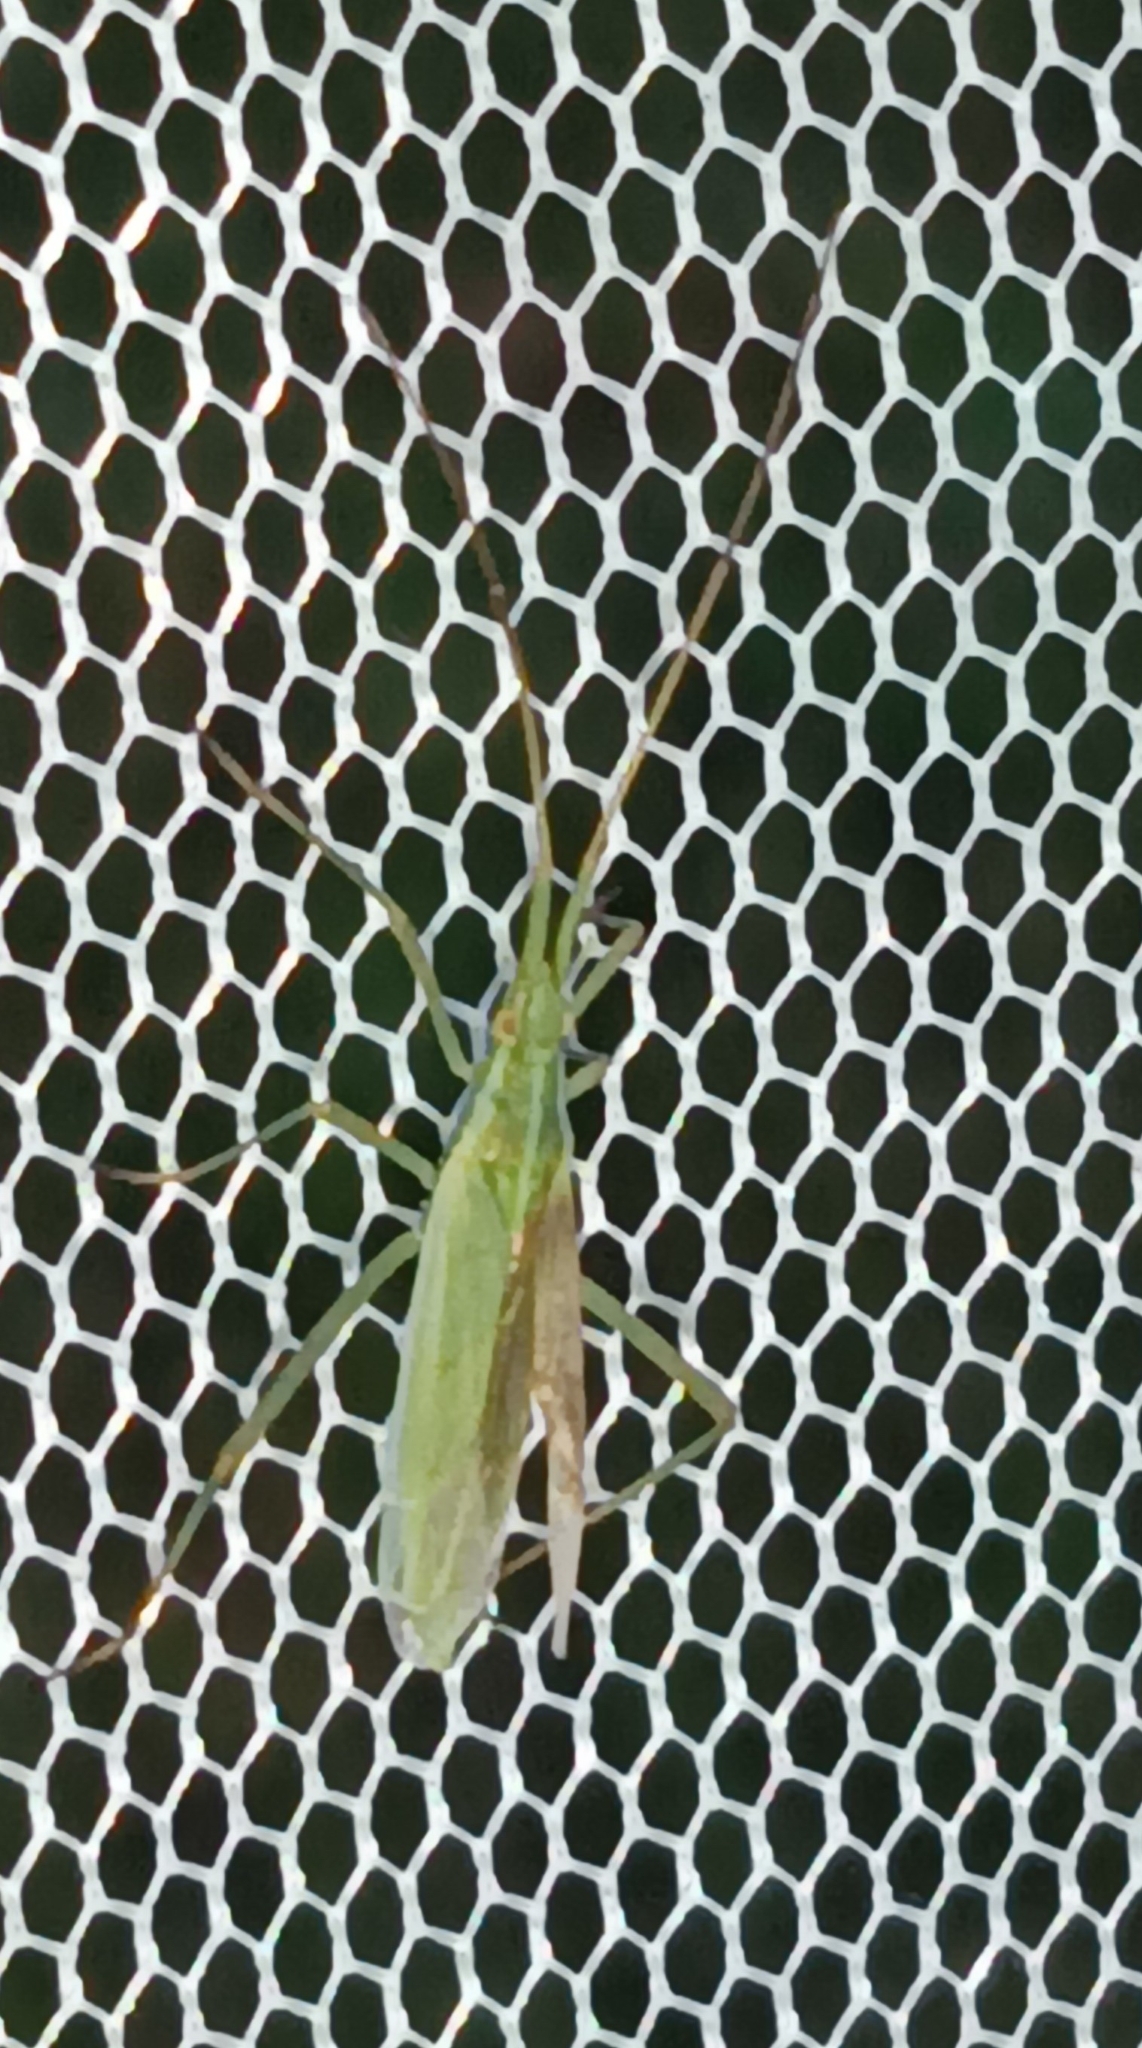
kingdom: Animalia
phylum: Arthropoda
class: Insecta
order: Hemiptera
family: Miridae
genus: Megaloceroea
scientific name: Megaloceroea recticornis
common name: Plant bug
